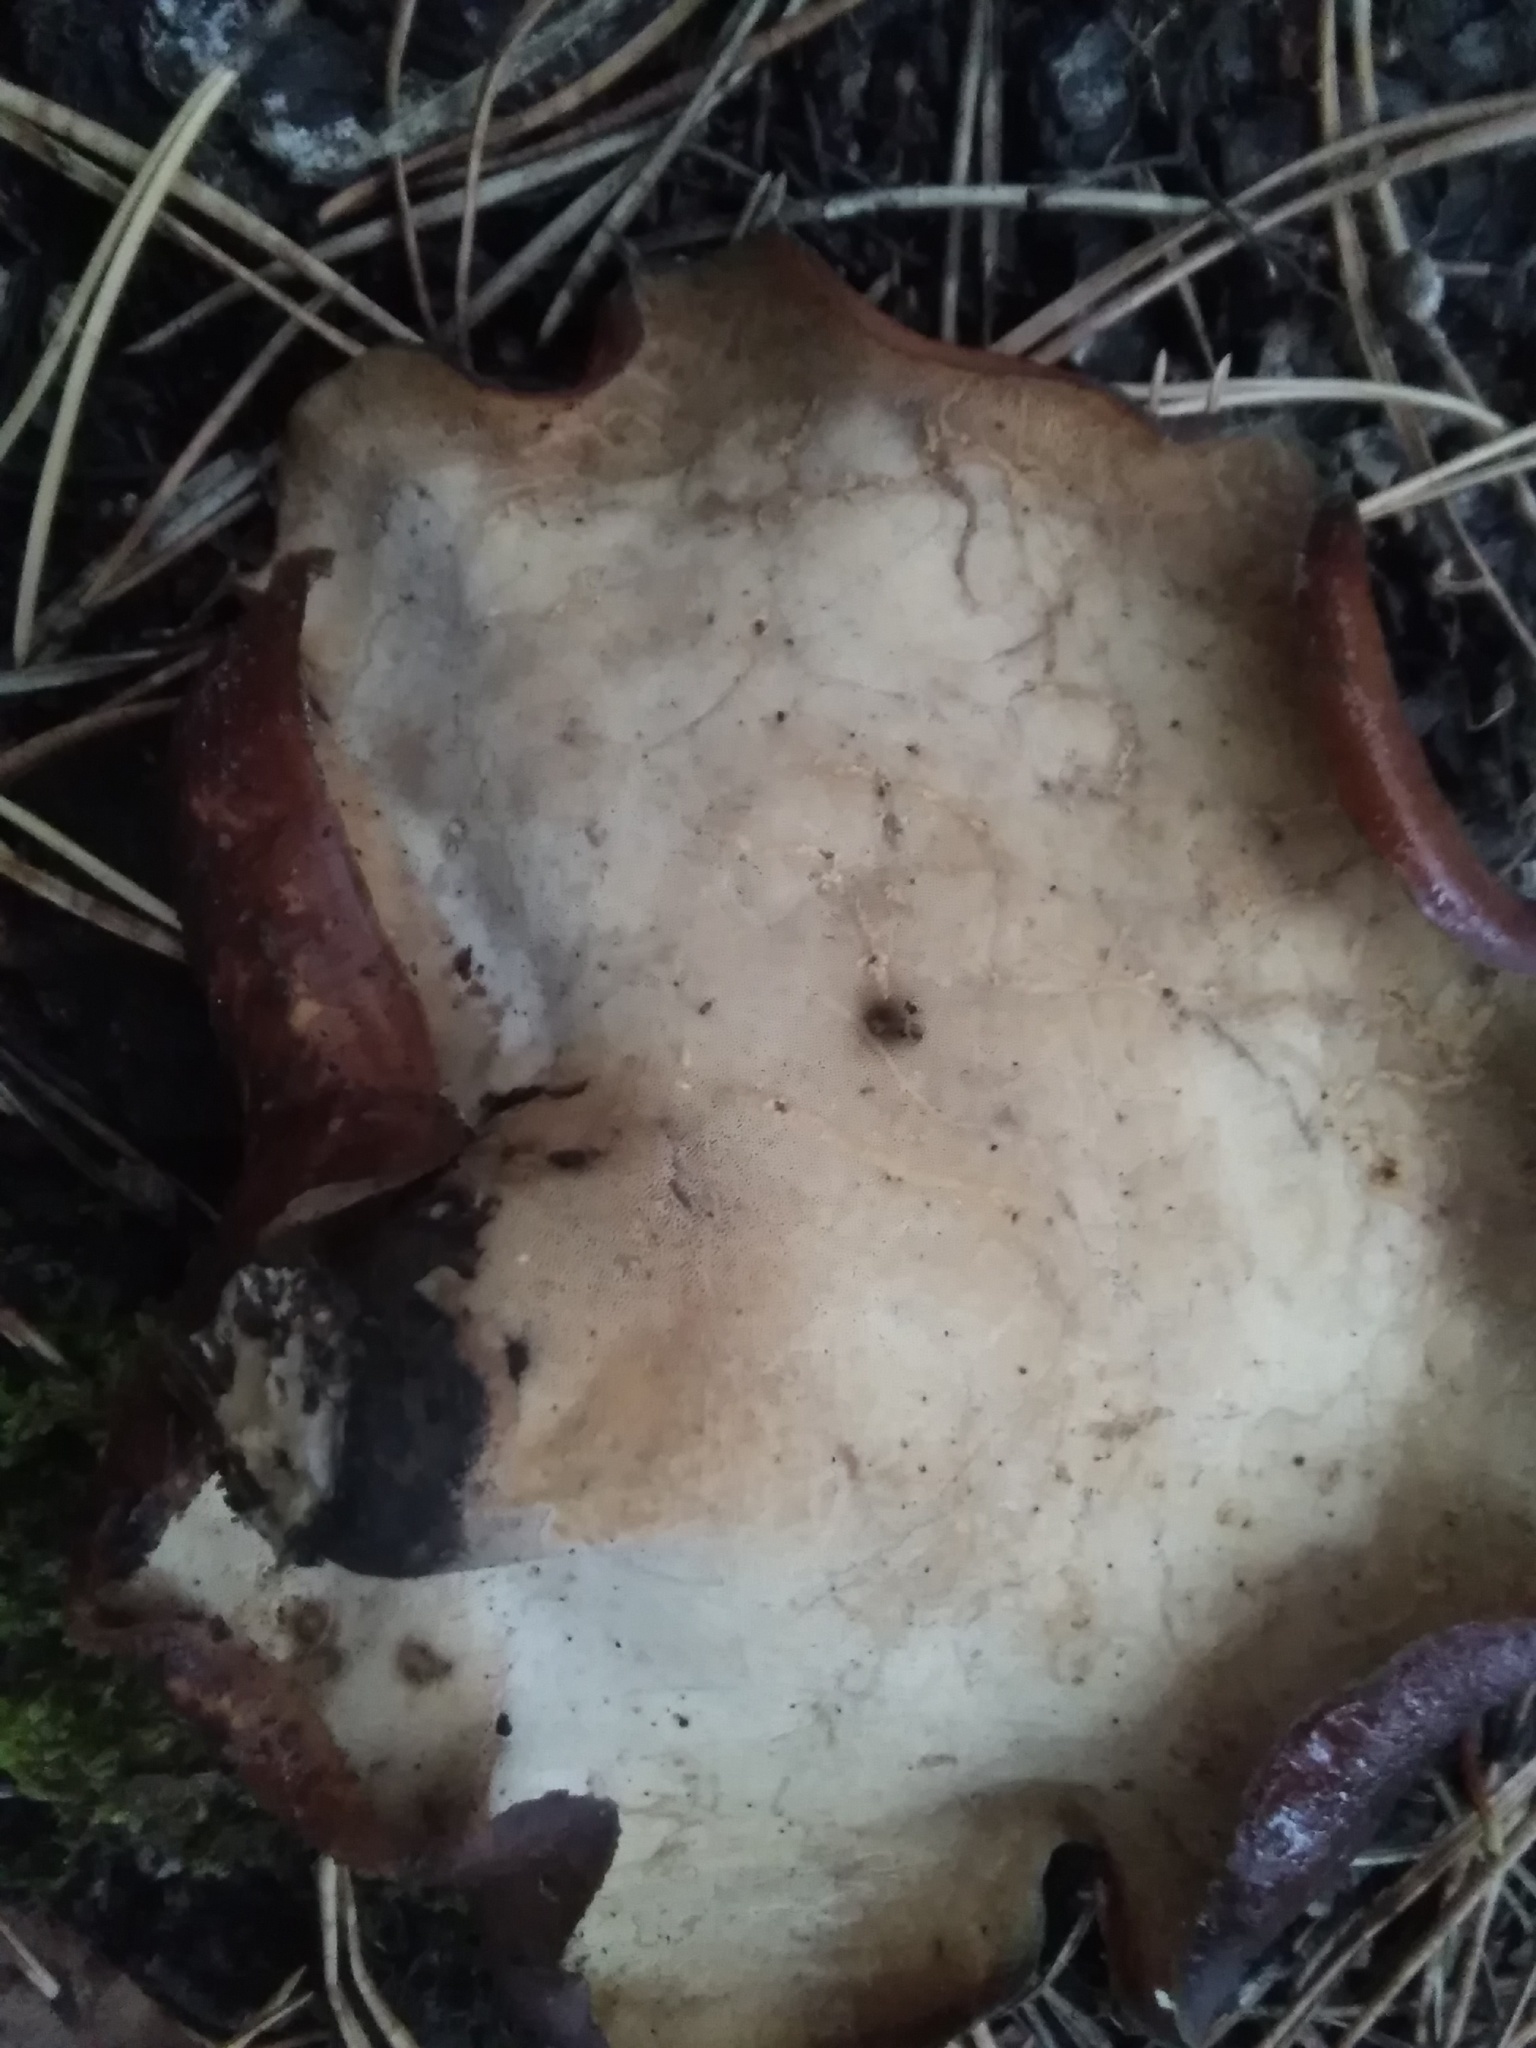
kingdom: Fungi
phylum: Basidiomycota
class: Agaricomycetes
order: Polyporales
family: Polyporaceae
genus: Picipes
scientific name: Picipes badius
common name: Bay polypore
